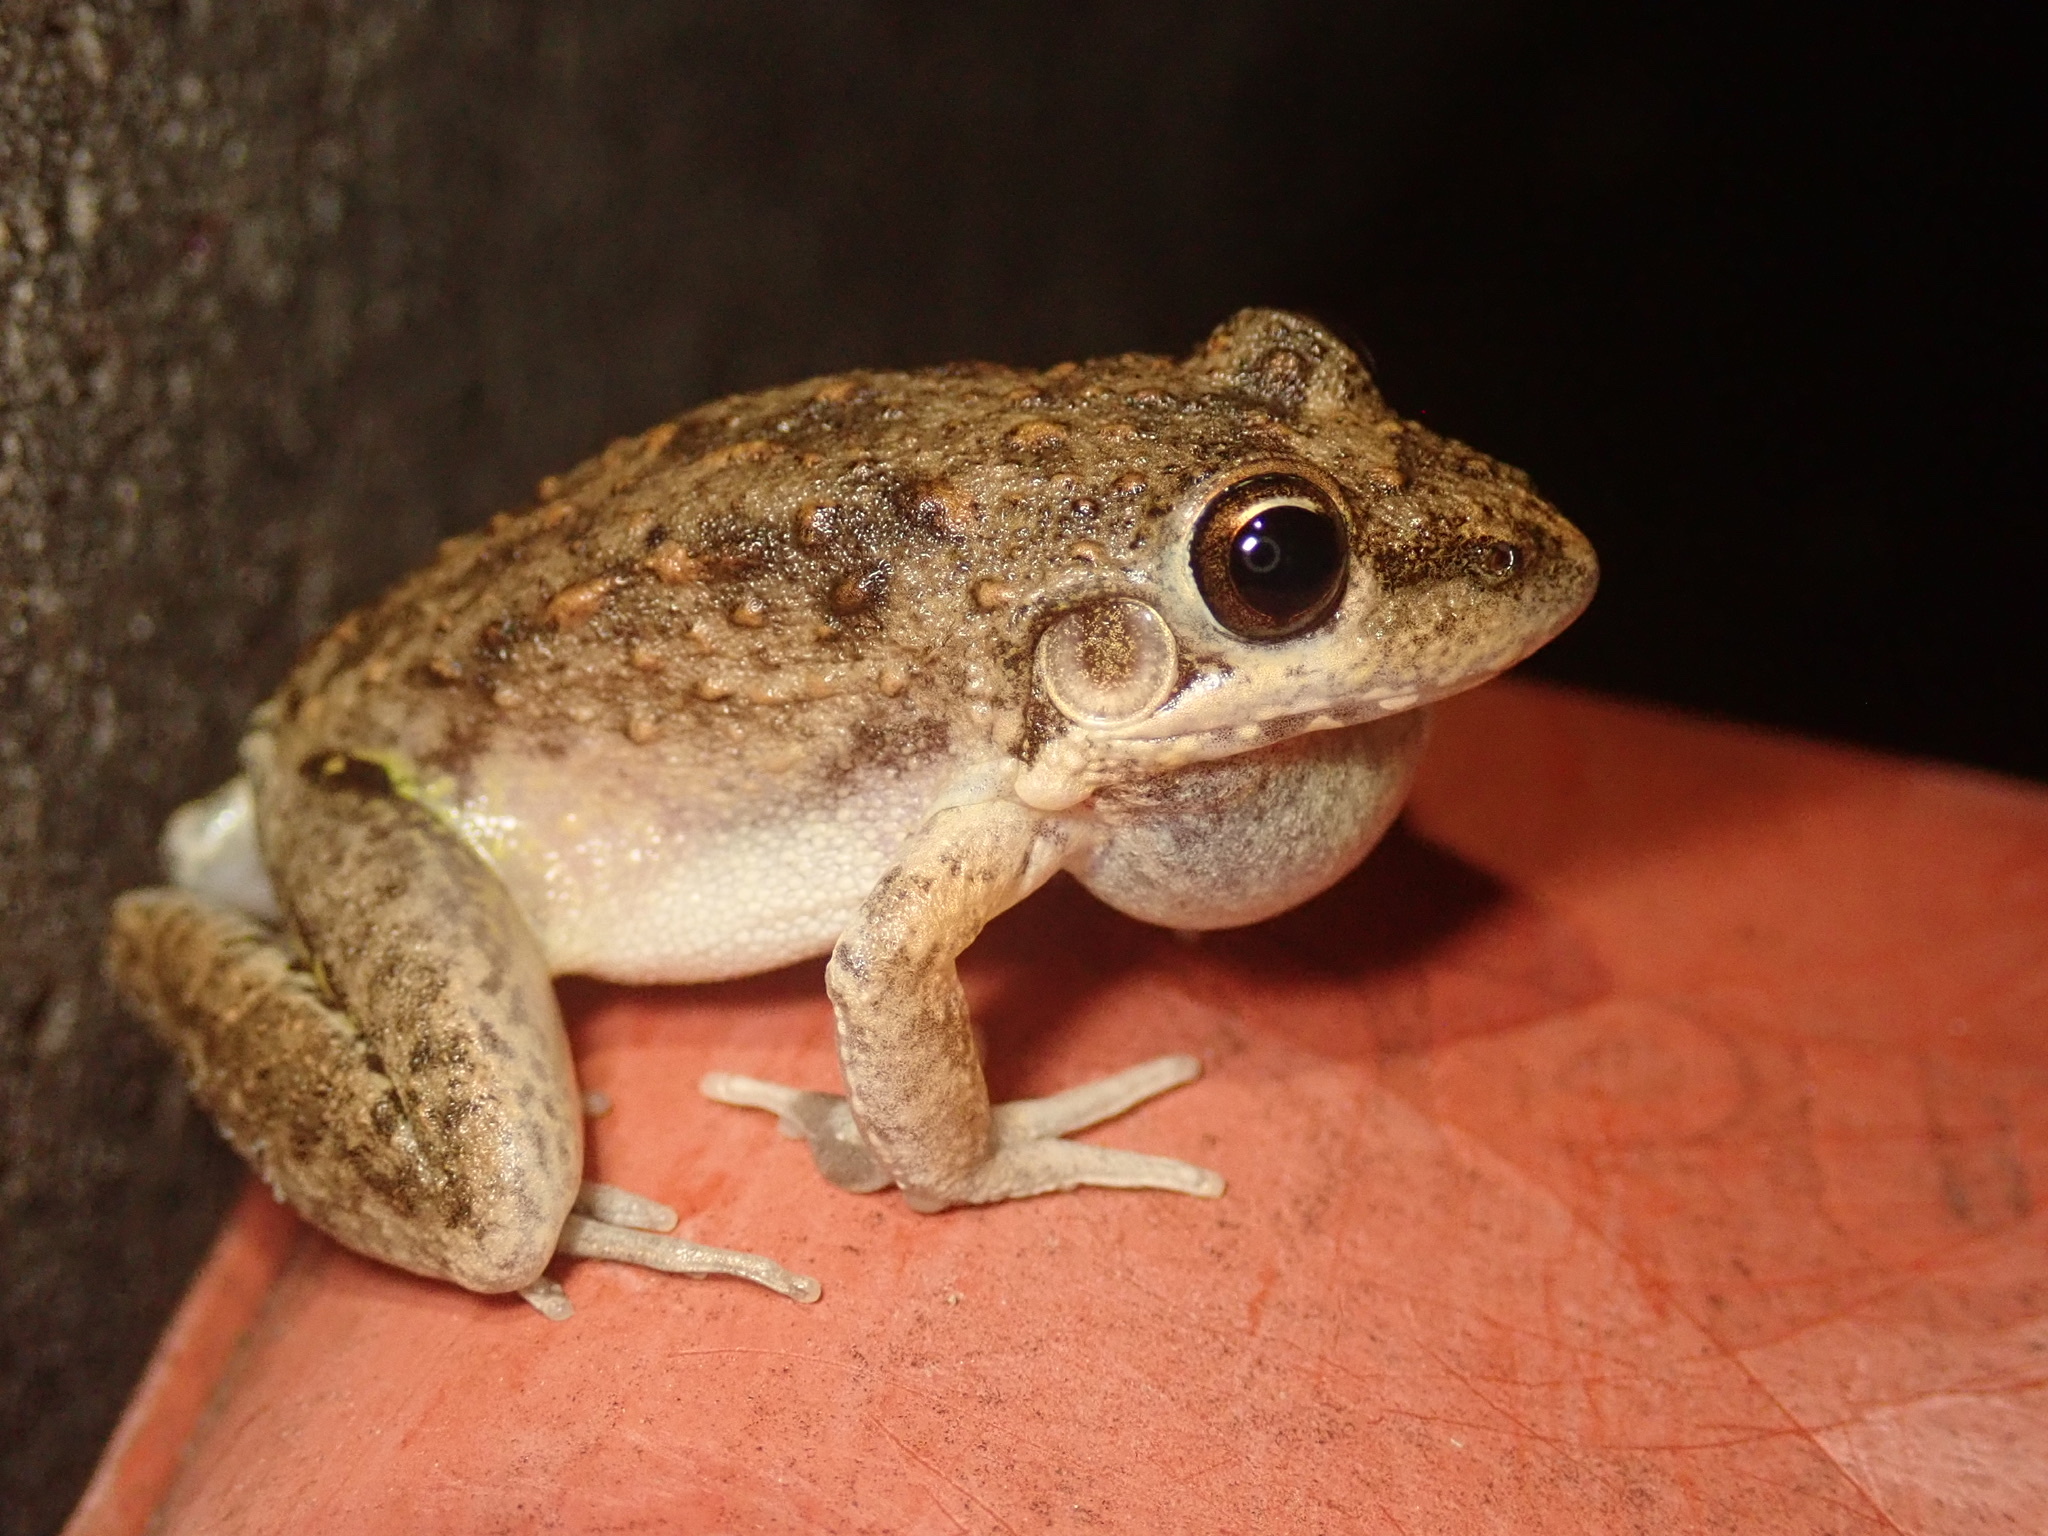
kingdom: Animalia
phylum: Chordata
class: Amphibia
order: Anura
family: Pelodryadidae
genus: Litoria
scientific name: Litoria inermis
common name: Bumpy rocket frog
